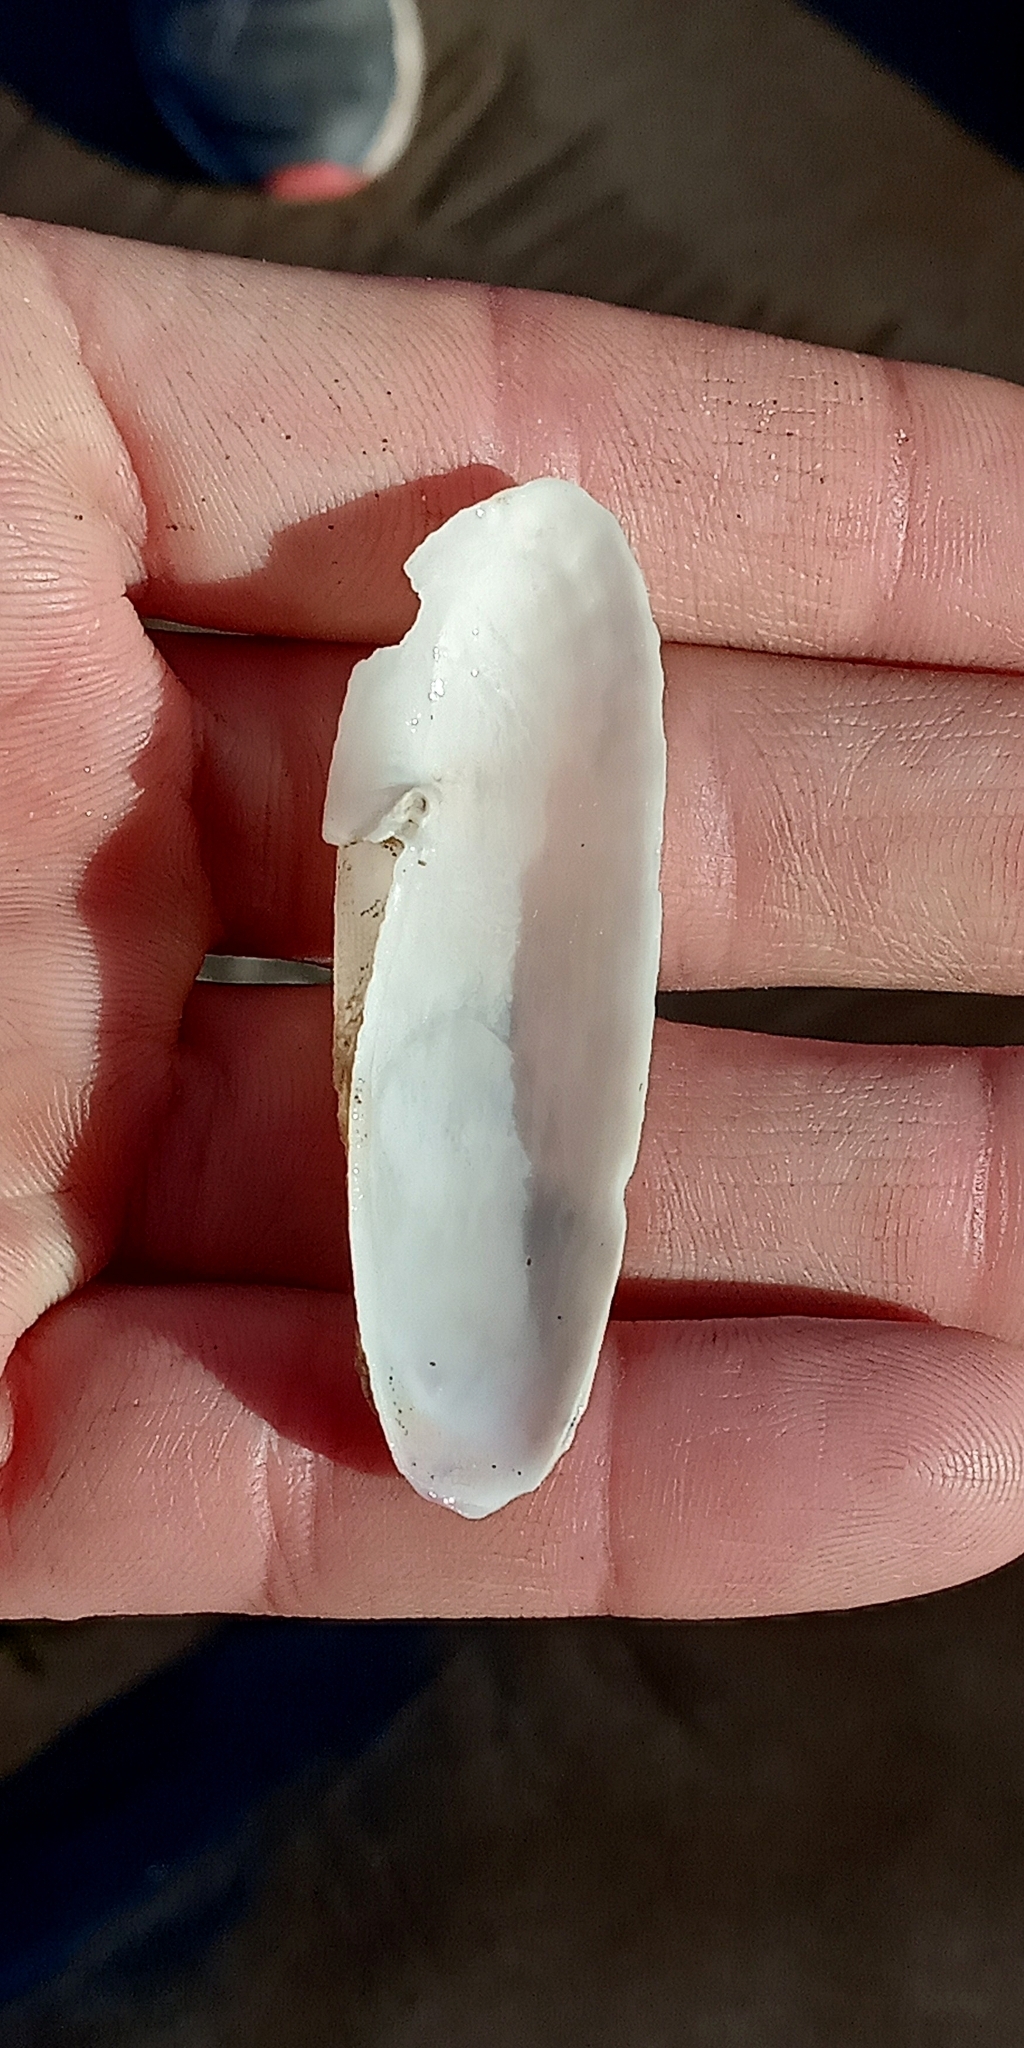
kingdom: Animalia
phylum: Mollusca
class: Bivalvia
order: Myida
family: Pholadidae
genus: Cyrtopleura
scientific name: Cyrtopleura lanceolata
